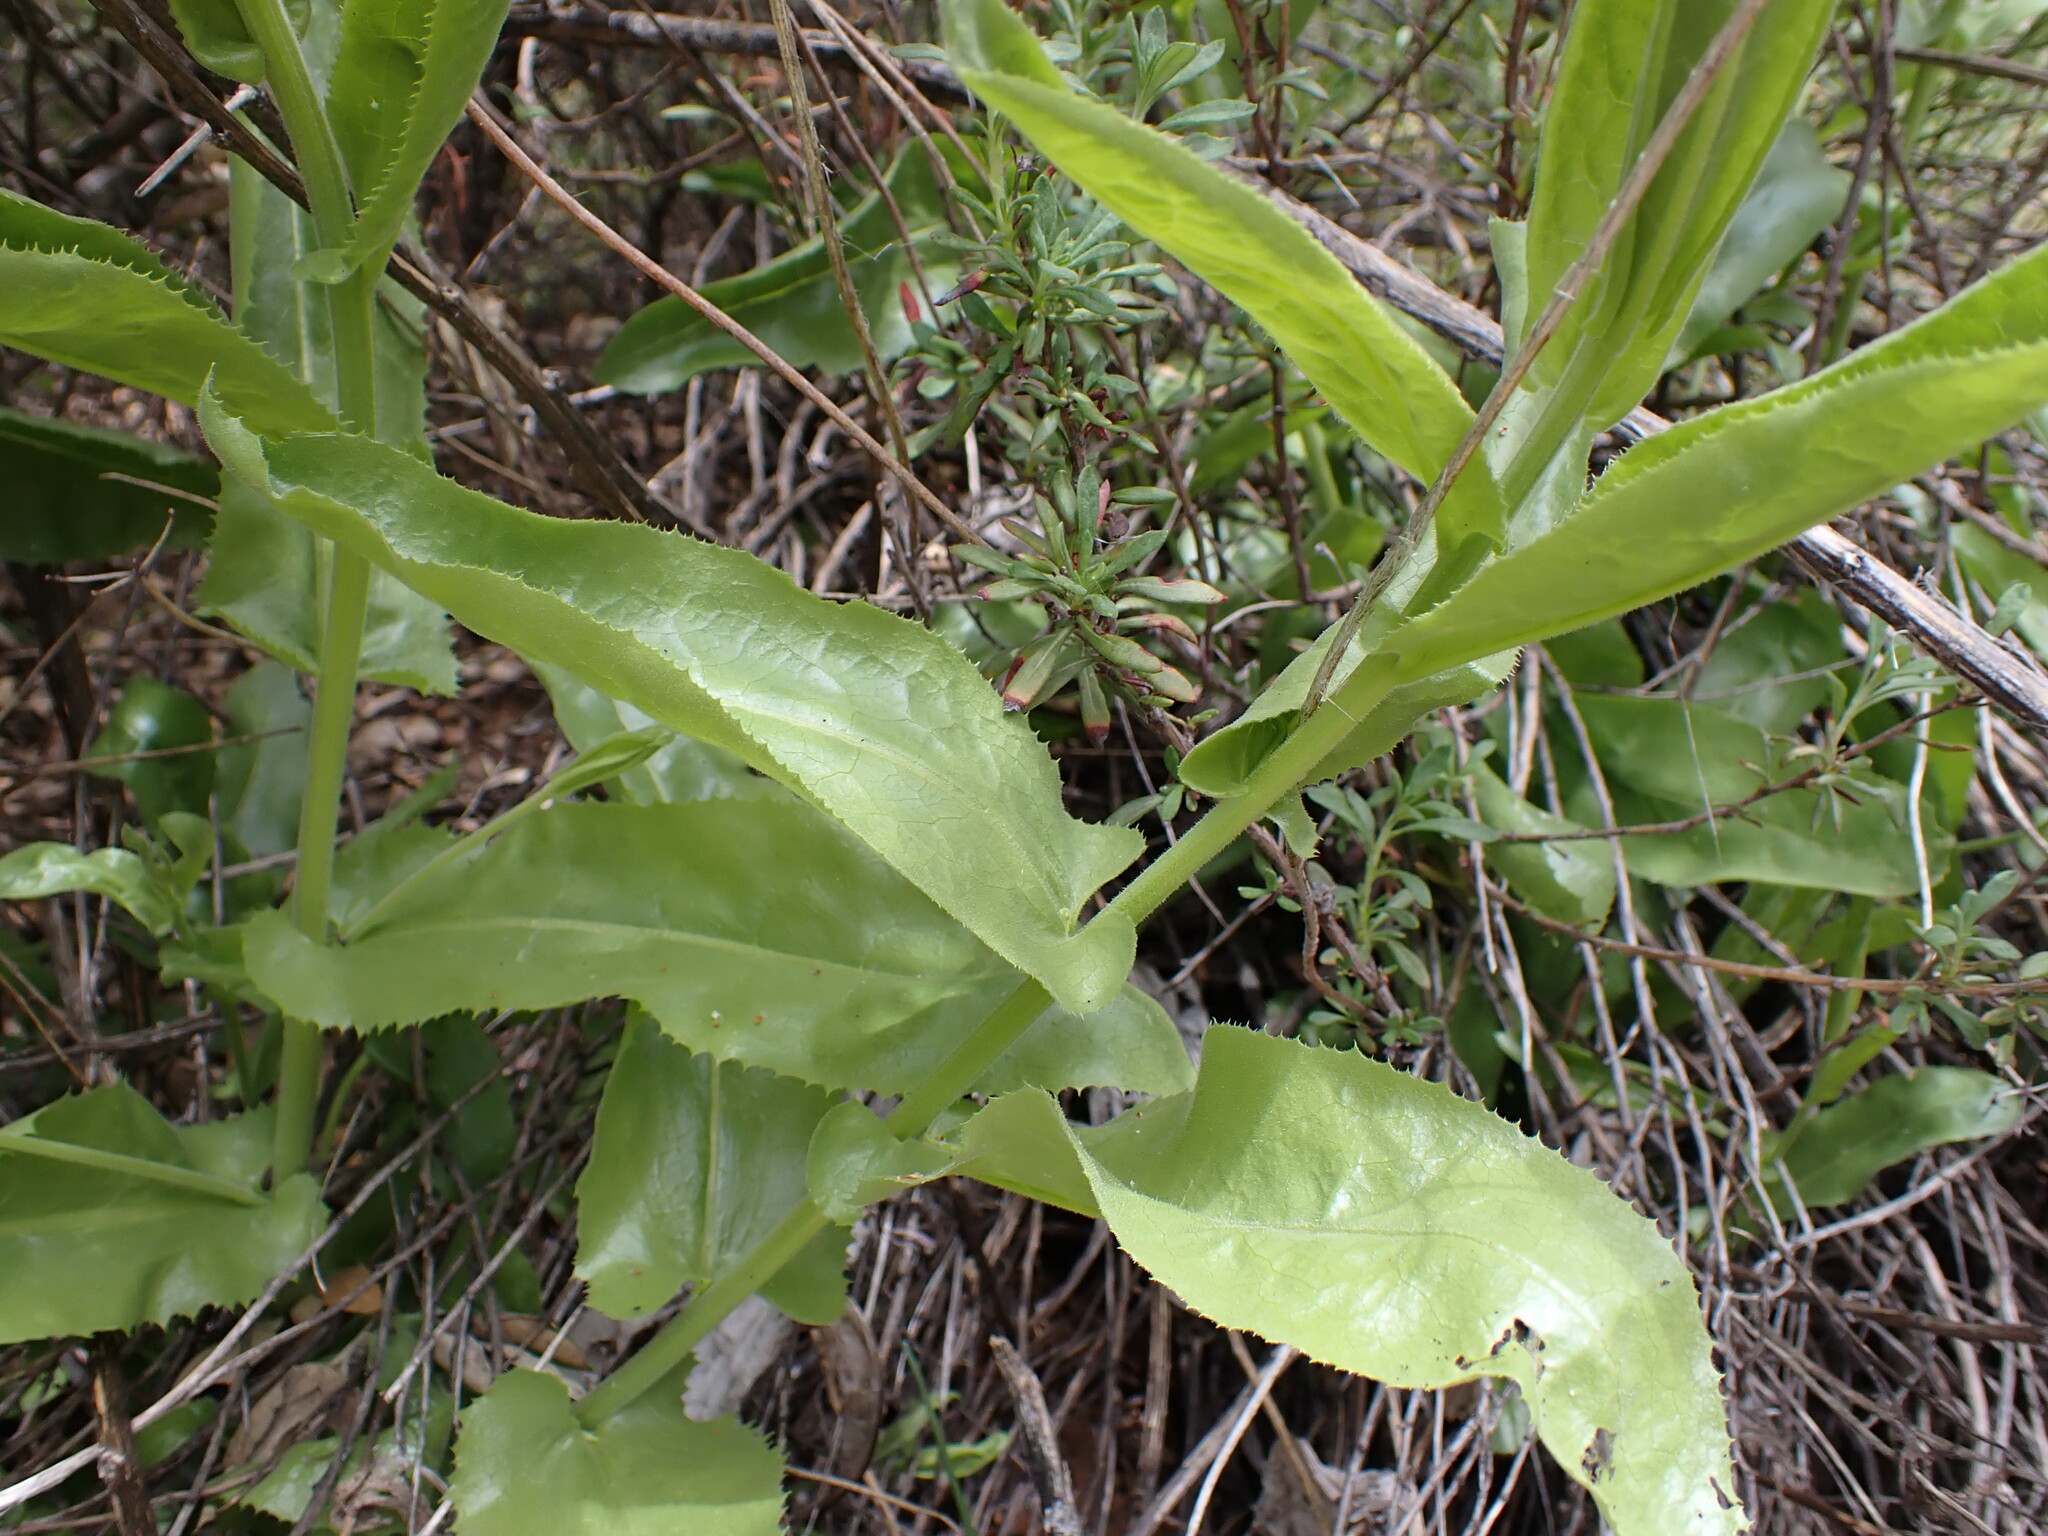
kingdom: Plantae
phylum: Tracheophyta
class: Magnoliopsida
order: Asterales
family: Asteraceae
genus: Acourtia
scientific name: Acourtia microcephala
